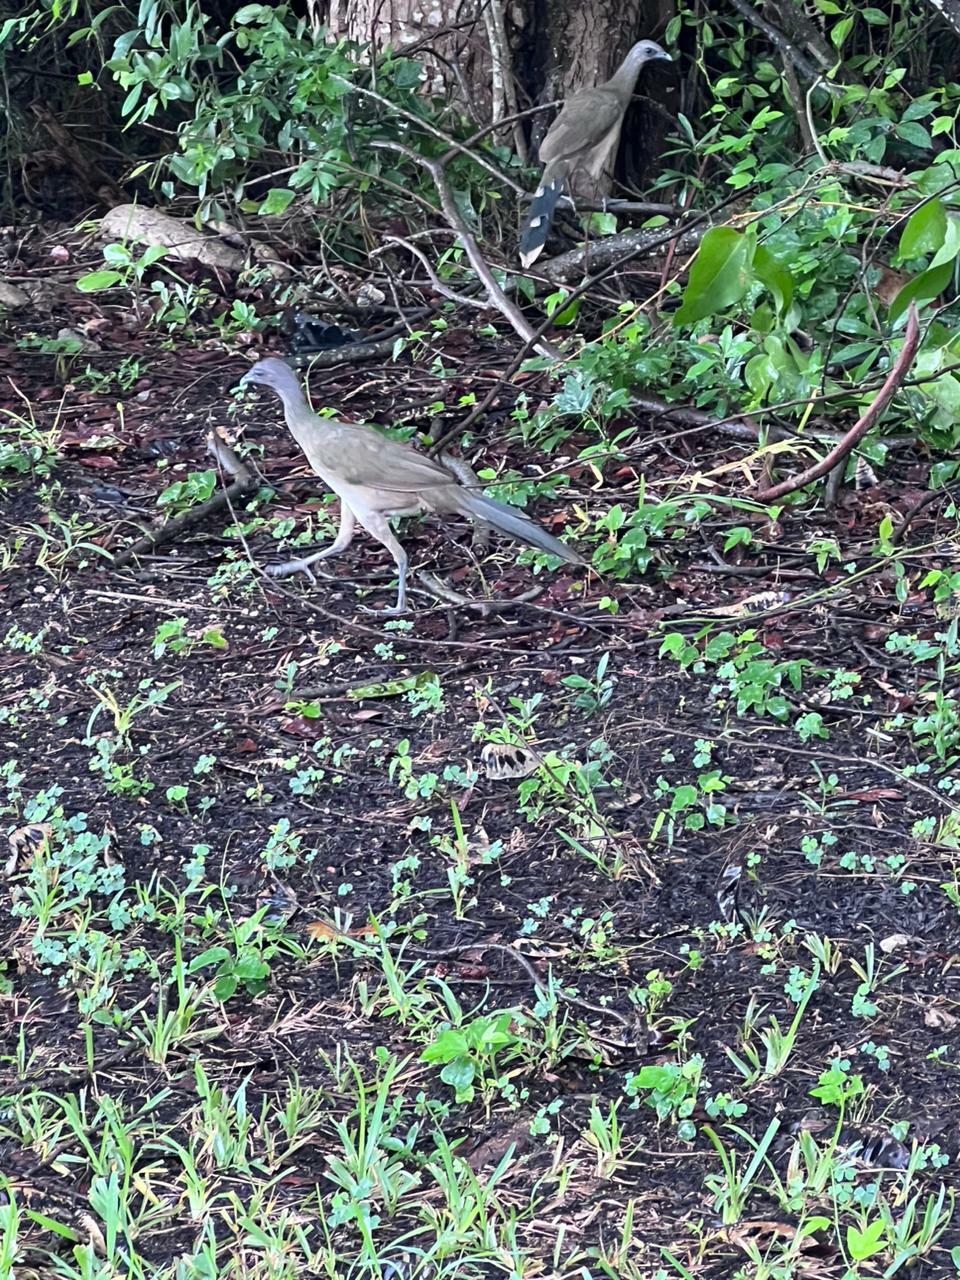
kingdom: Animalia
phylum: Chordata
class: Aves
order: Galliformes
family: Cracidae
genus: Ortalis
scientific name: Ortalis vetula
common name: Plain chachalaca
